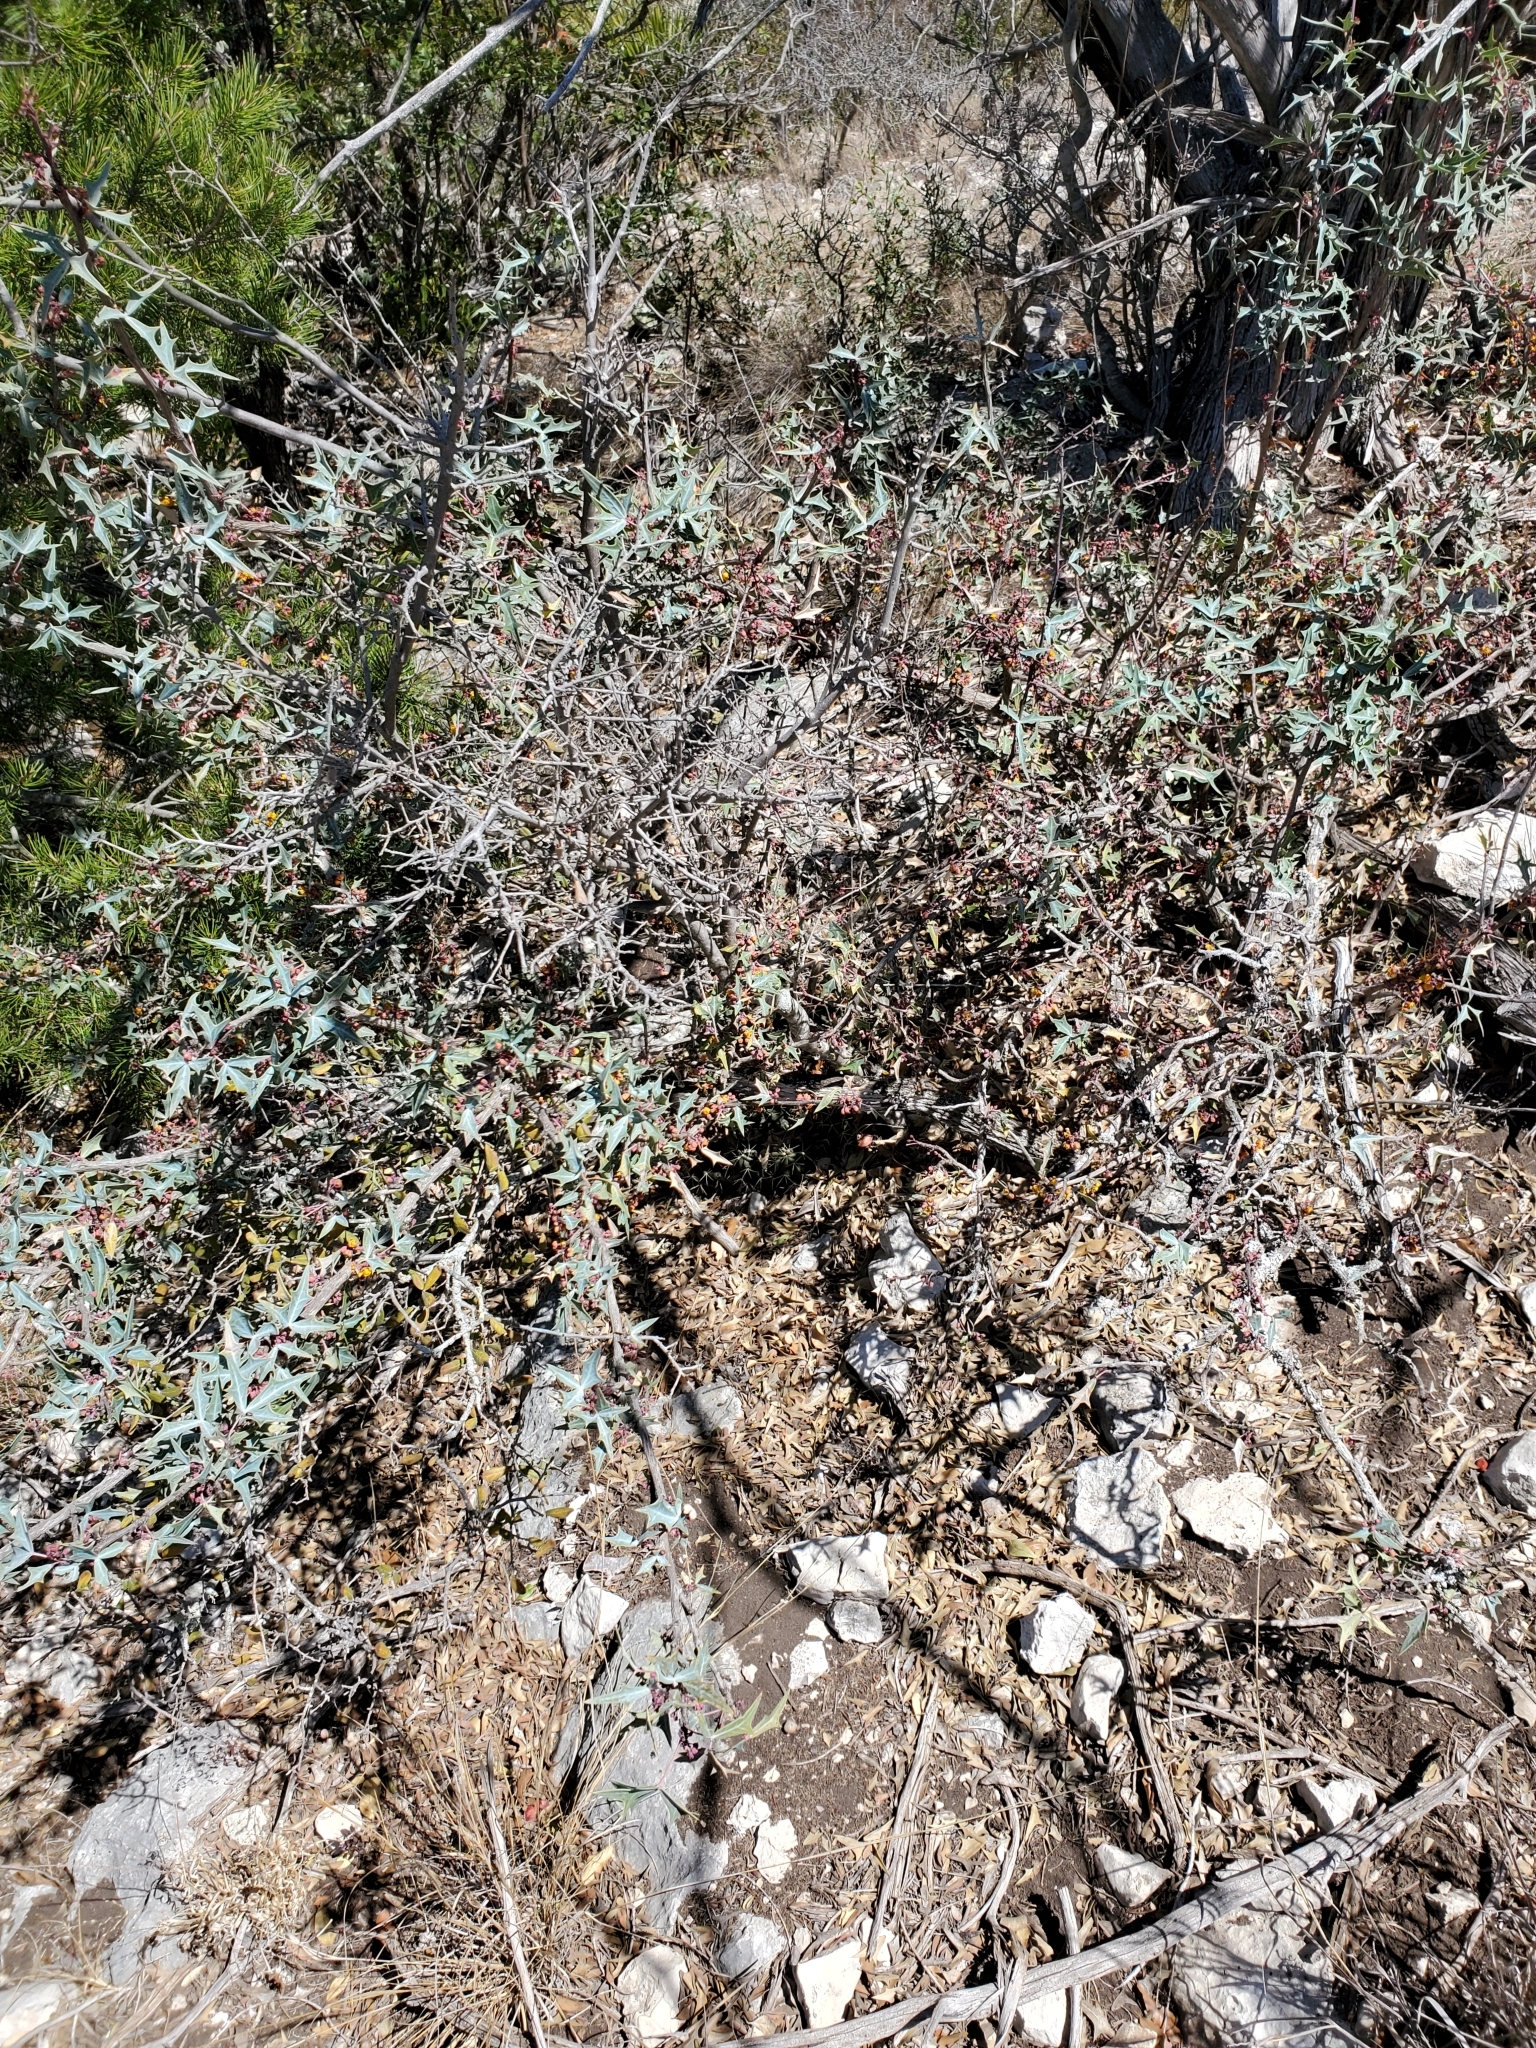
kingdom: Plantae
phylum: Tracheophyta
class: Magnoliopsida
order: Ranunculales
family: Berberidaceae
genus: Alloberberis
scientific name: Alloberberis trifoliolata
